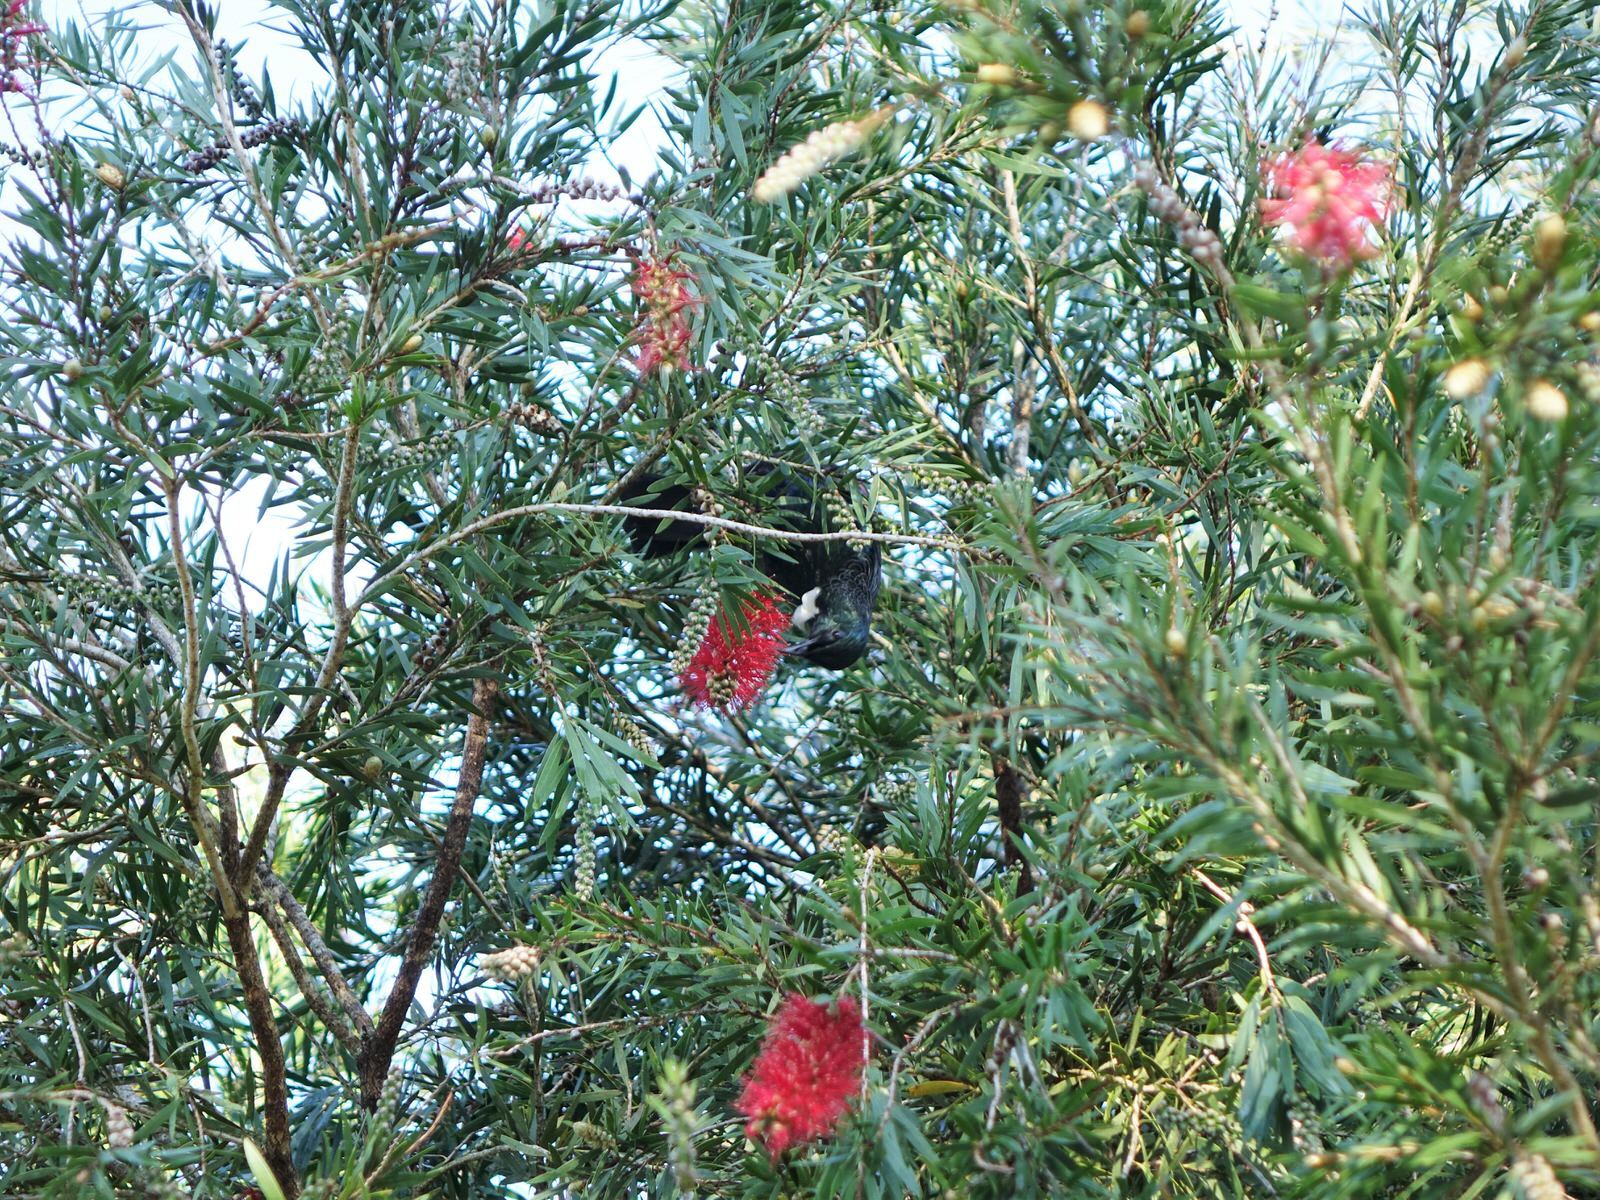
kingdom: Animalia
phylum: Chordata
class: Aves
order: Passeriformes
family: Meliphagidae
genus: Prosthemadera
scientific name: Prosthemadera novaeseelandiae
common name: Tui
